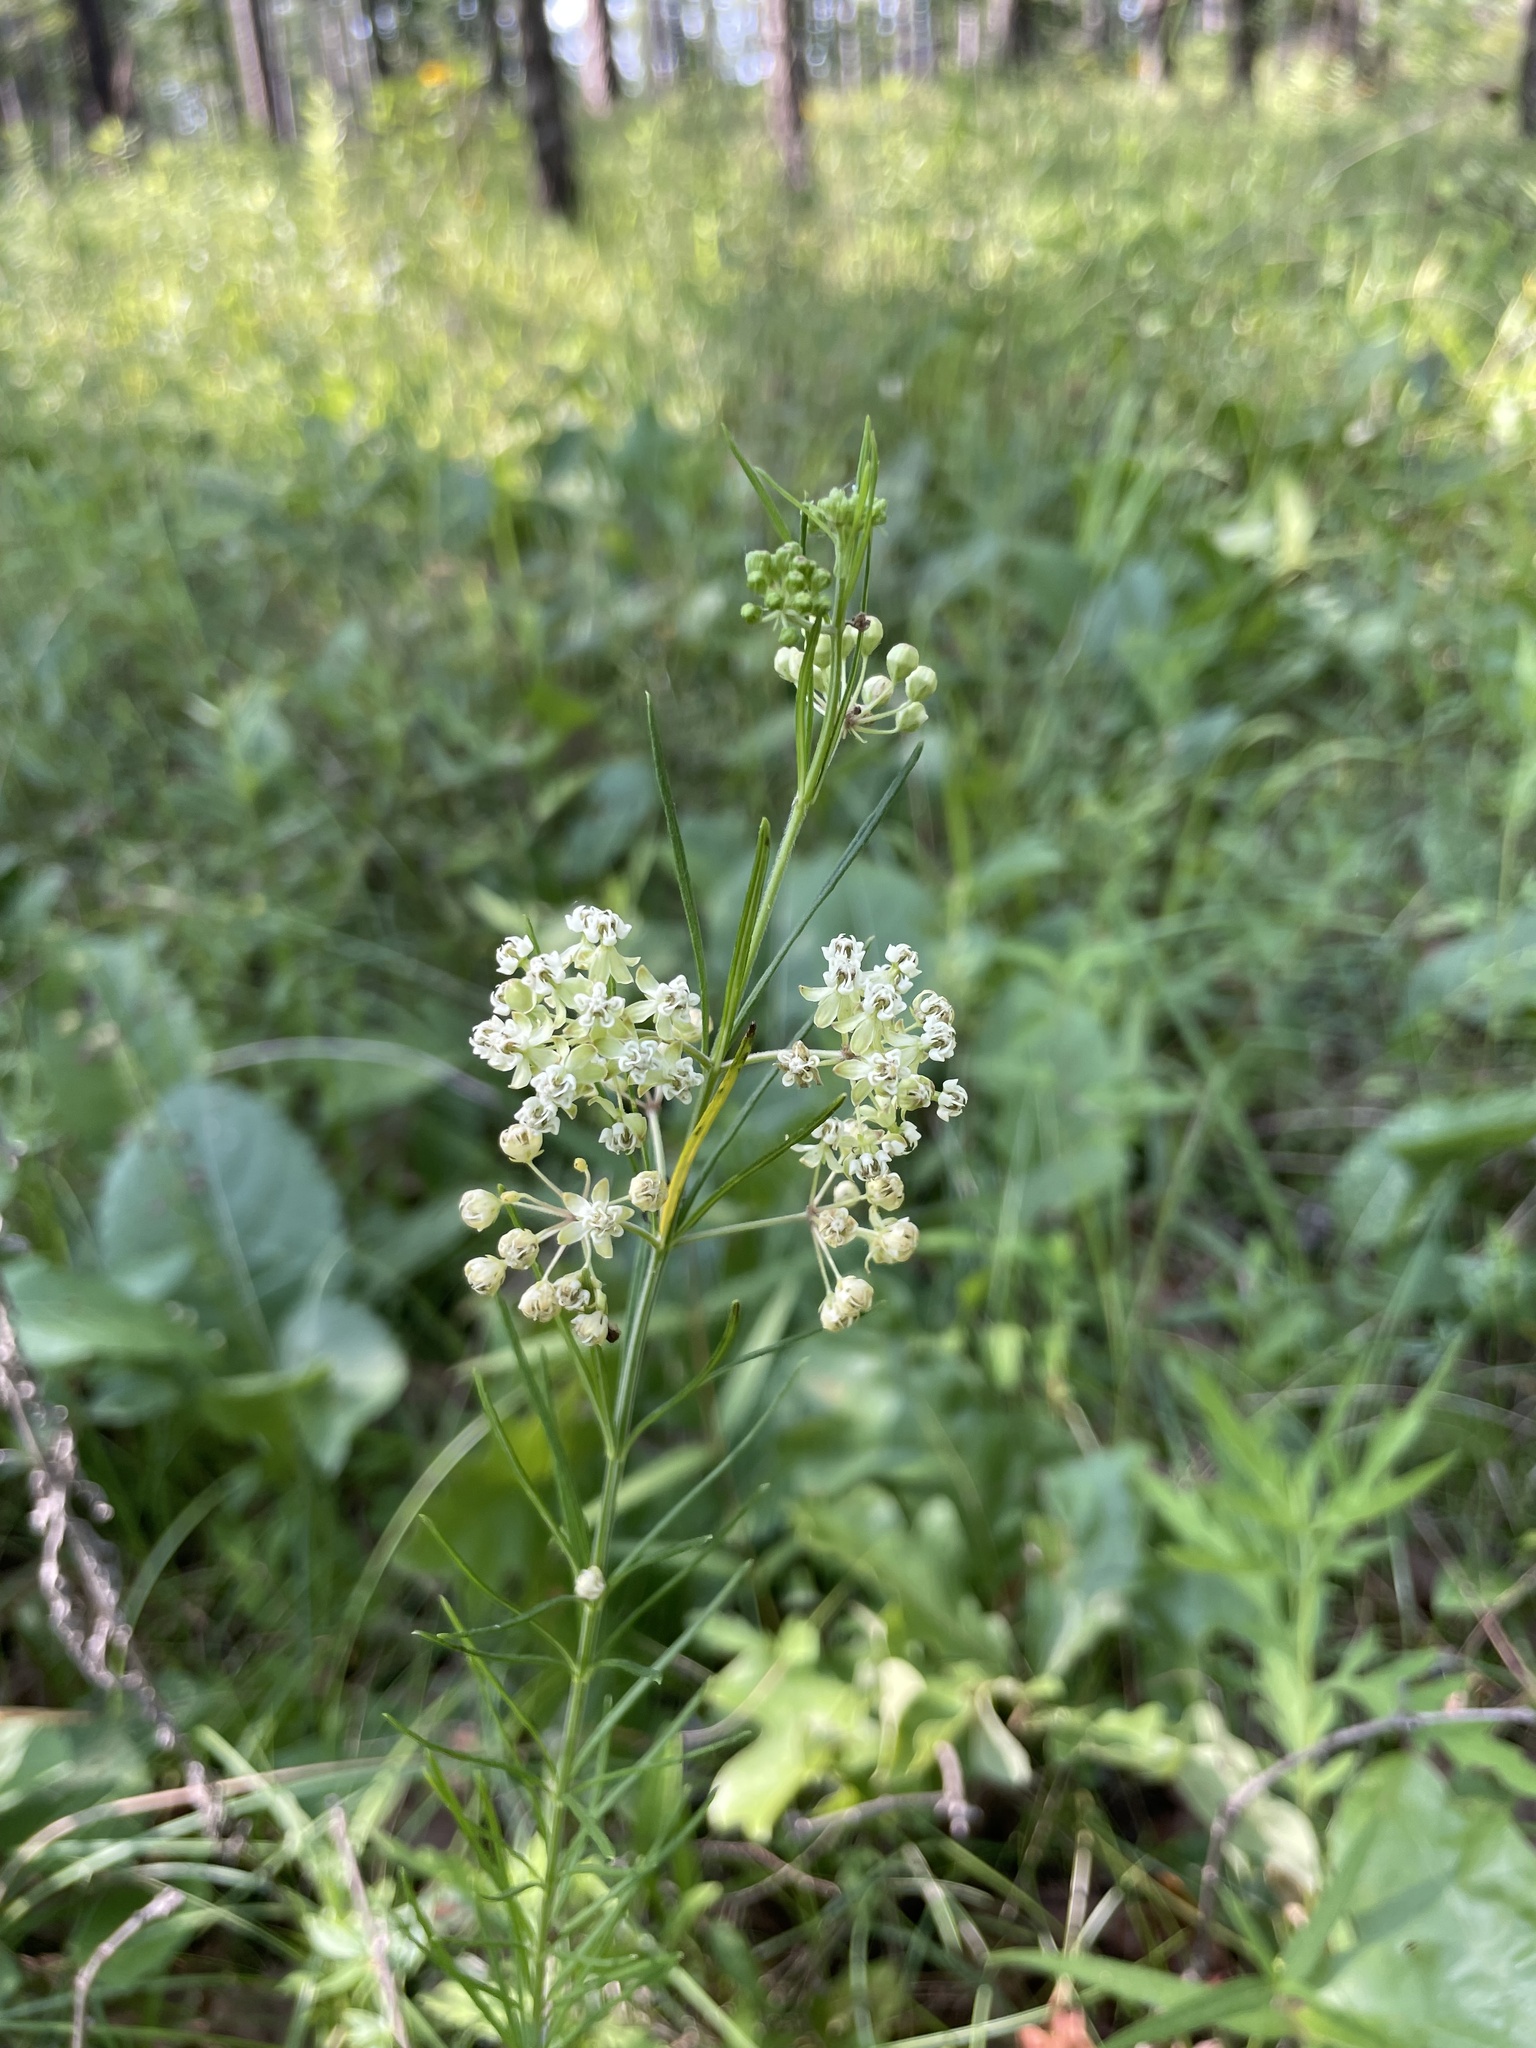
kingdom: Plantae
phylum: Tracheophyta
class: Magnoliopsida
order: Gentianales
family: Apocynaceae
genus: Asclepias
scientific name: Asclepias verticillata
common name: Eastern whorled milkweed
